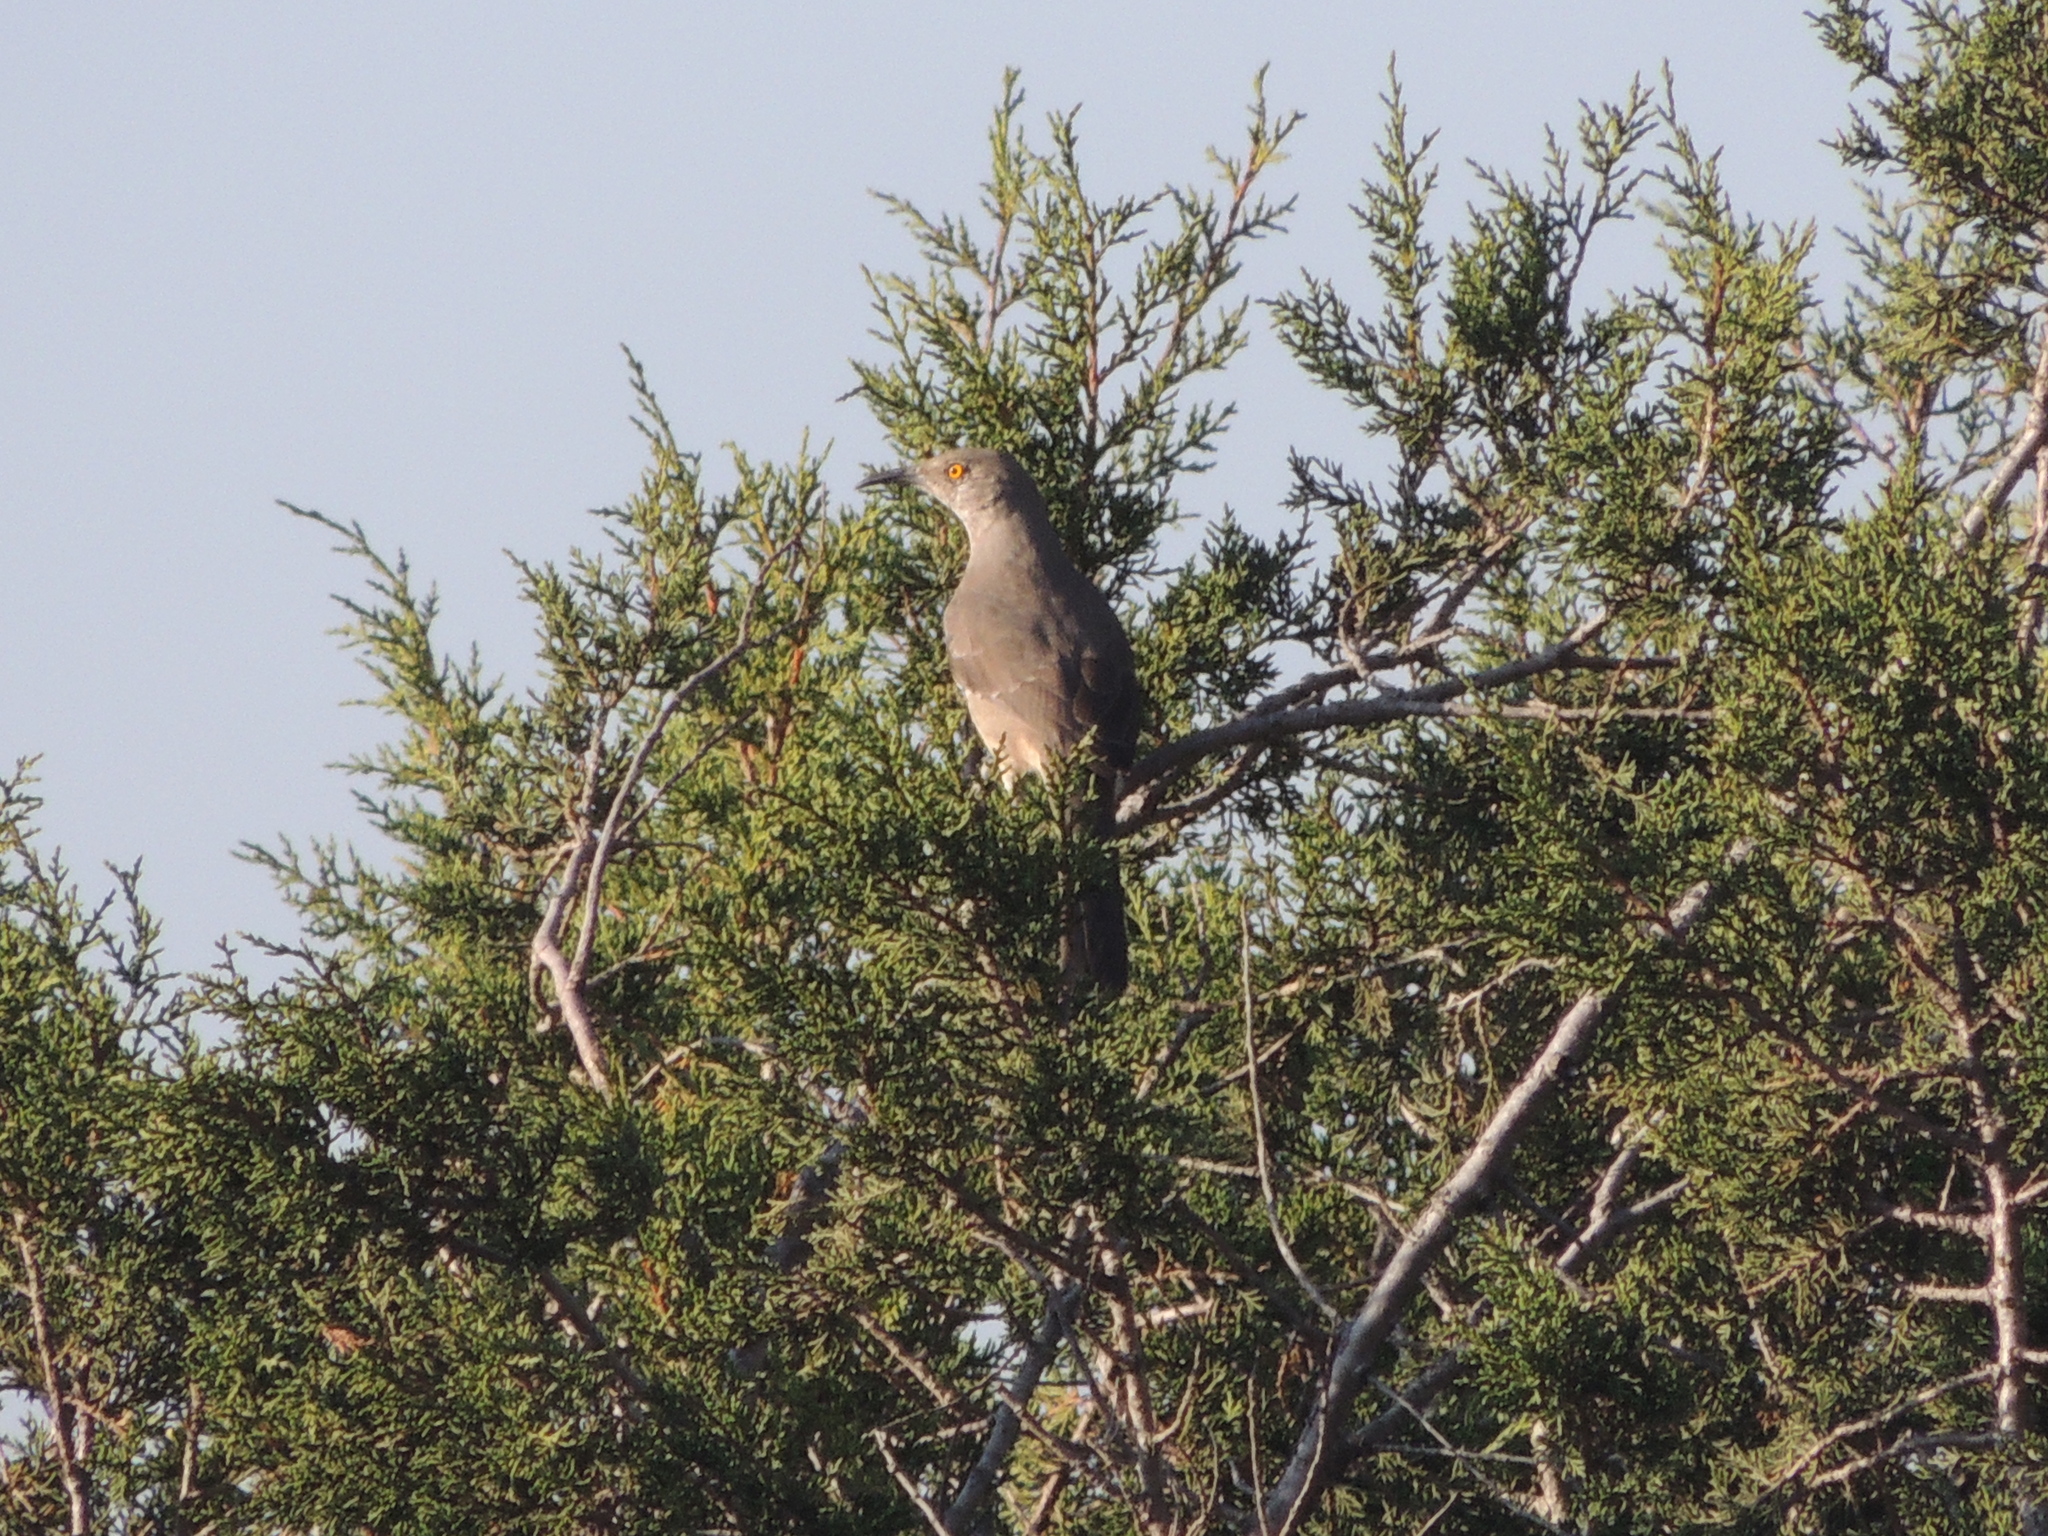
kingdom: Animalia
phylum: Chordata
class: Aves
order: Passeriformes
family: Mimidae
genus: Toxostoma
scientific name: Toxostoma curvirostre
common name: Curve-billed thrasher
